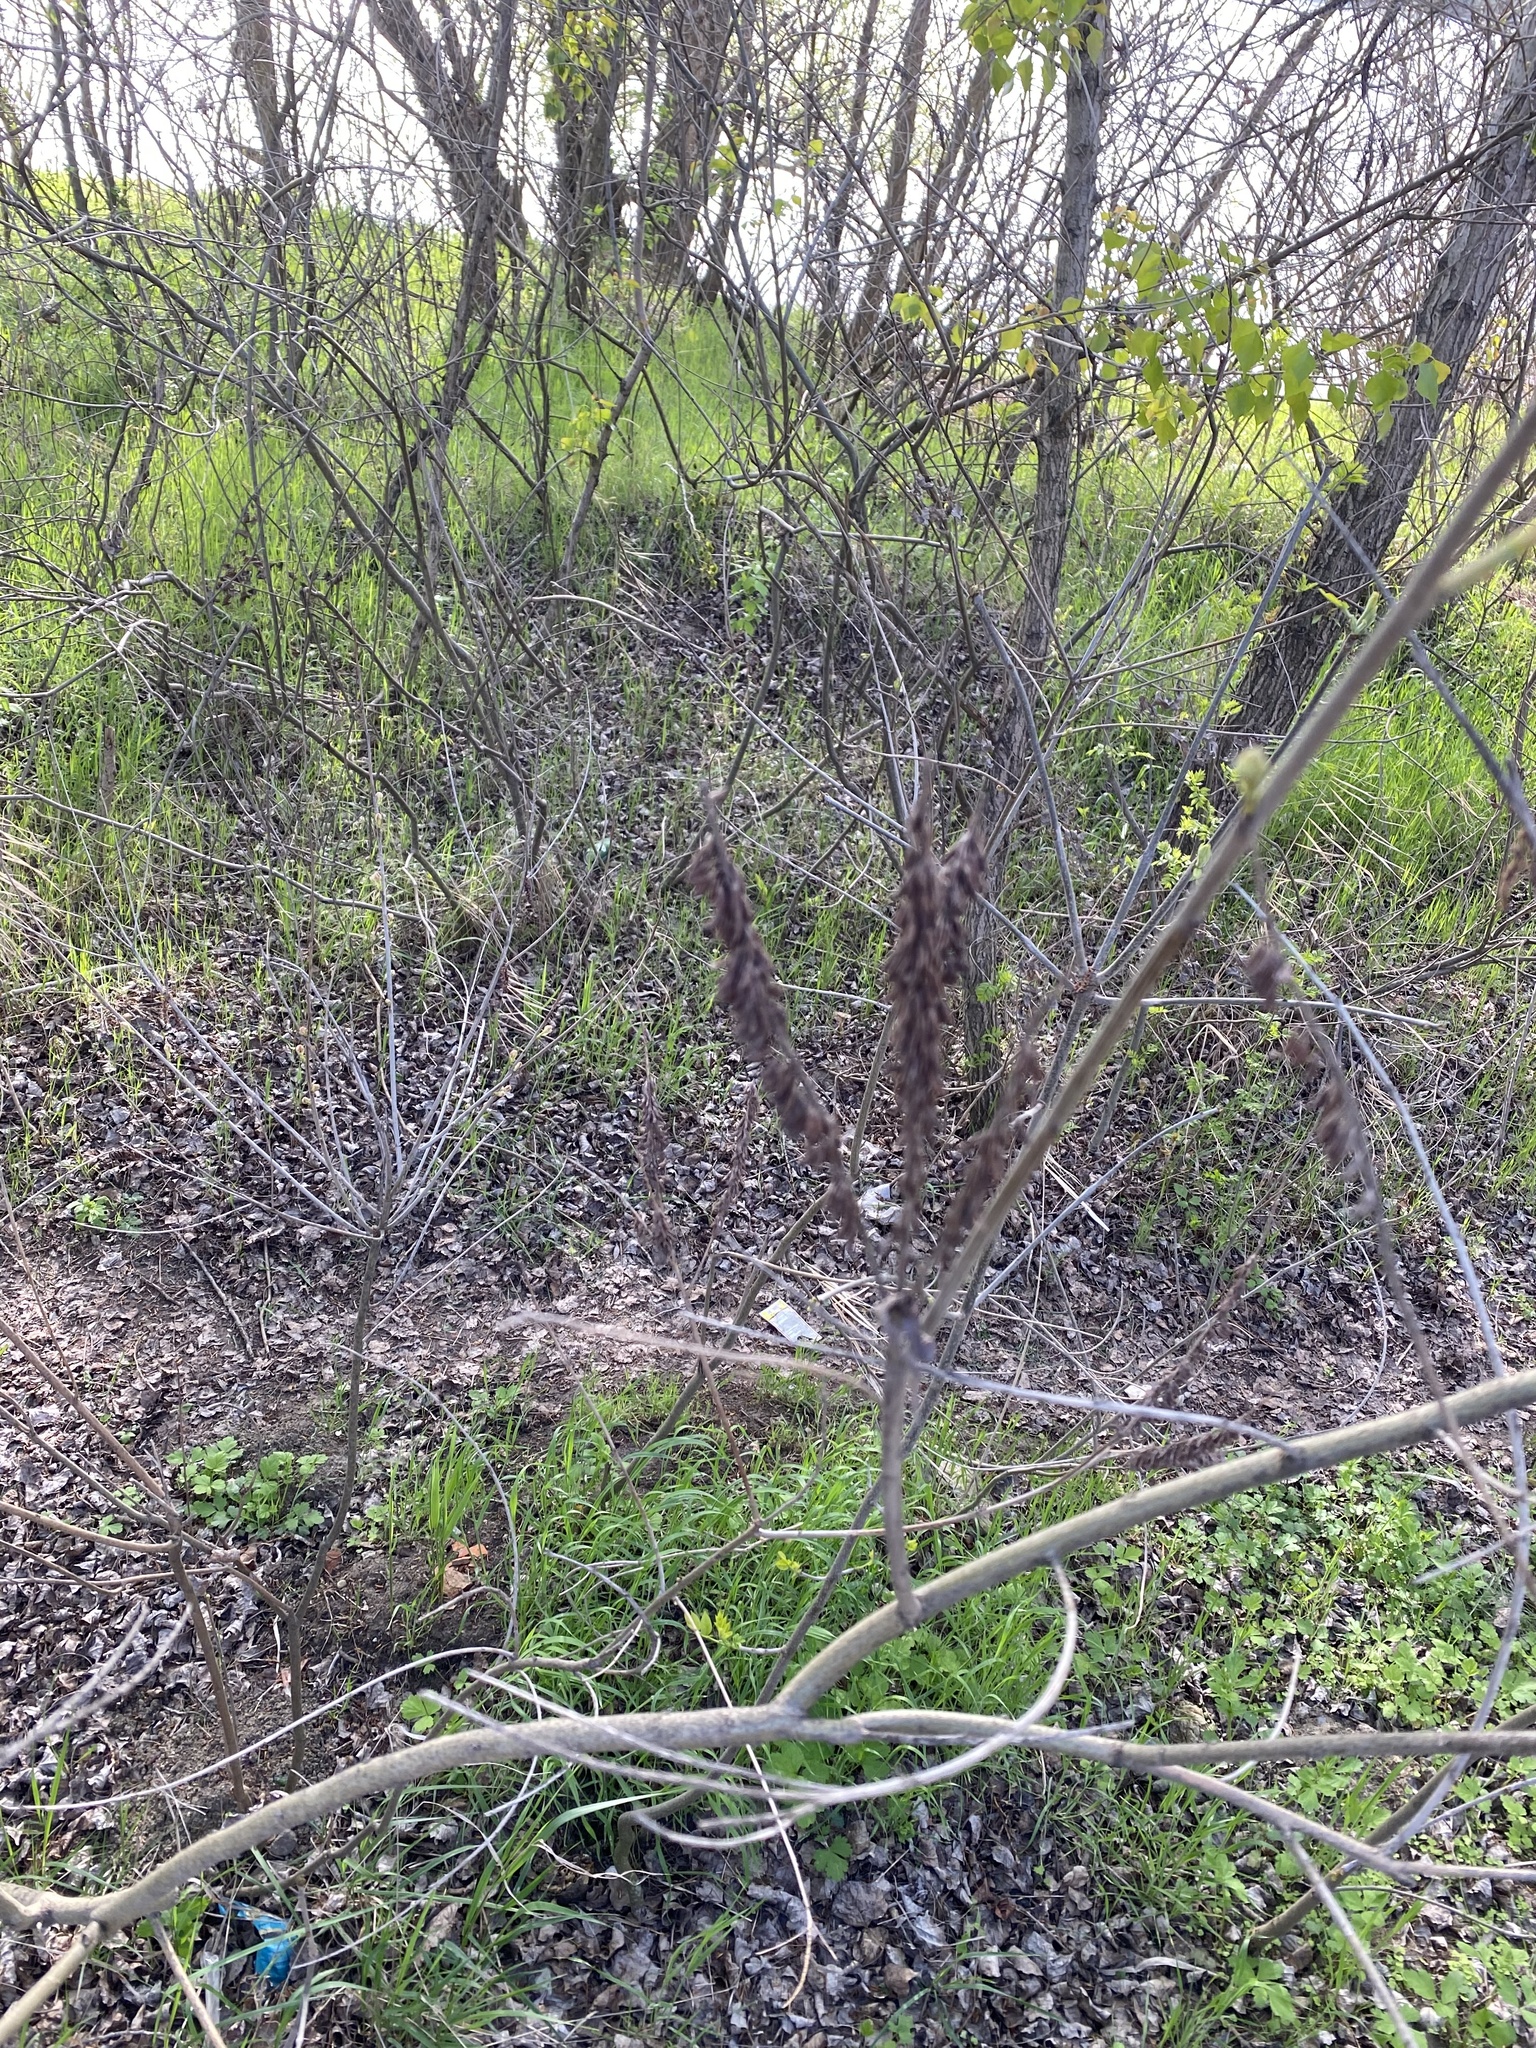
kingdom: Plantae
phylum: Tracheophyta
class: Magnoliopsida
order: Fabales
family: Fabaceae
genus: Amorpha
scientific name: Amorpha fruticosa
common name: False indigo
